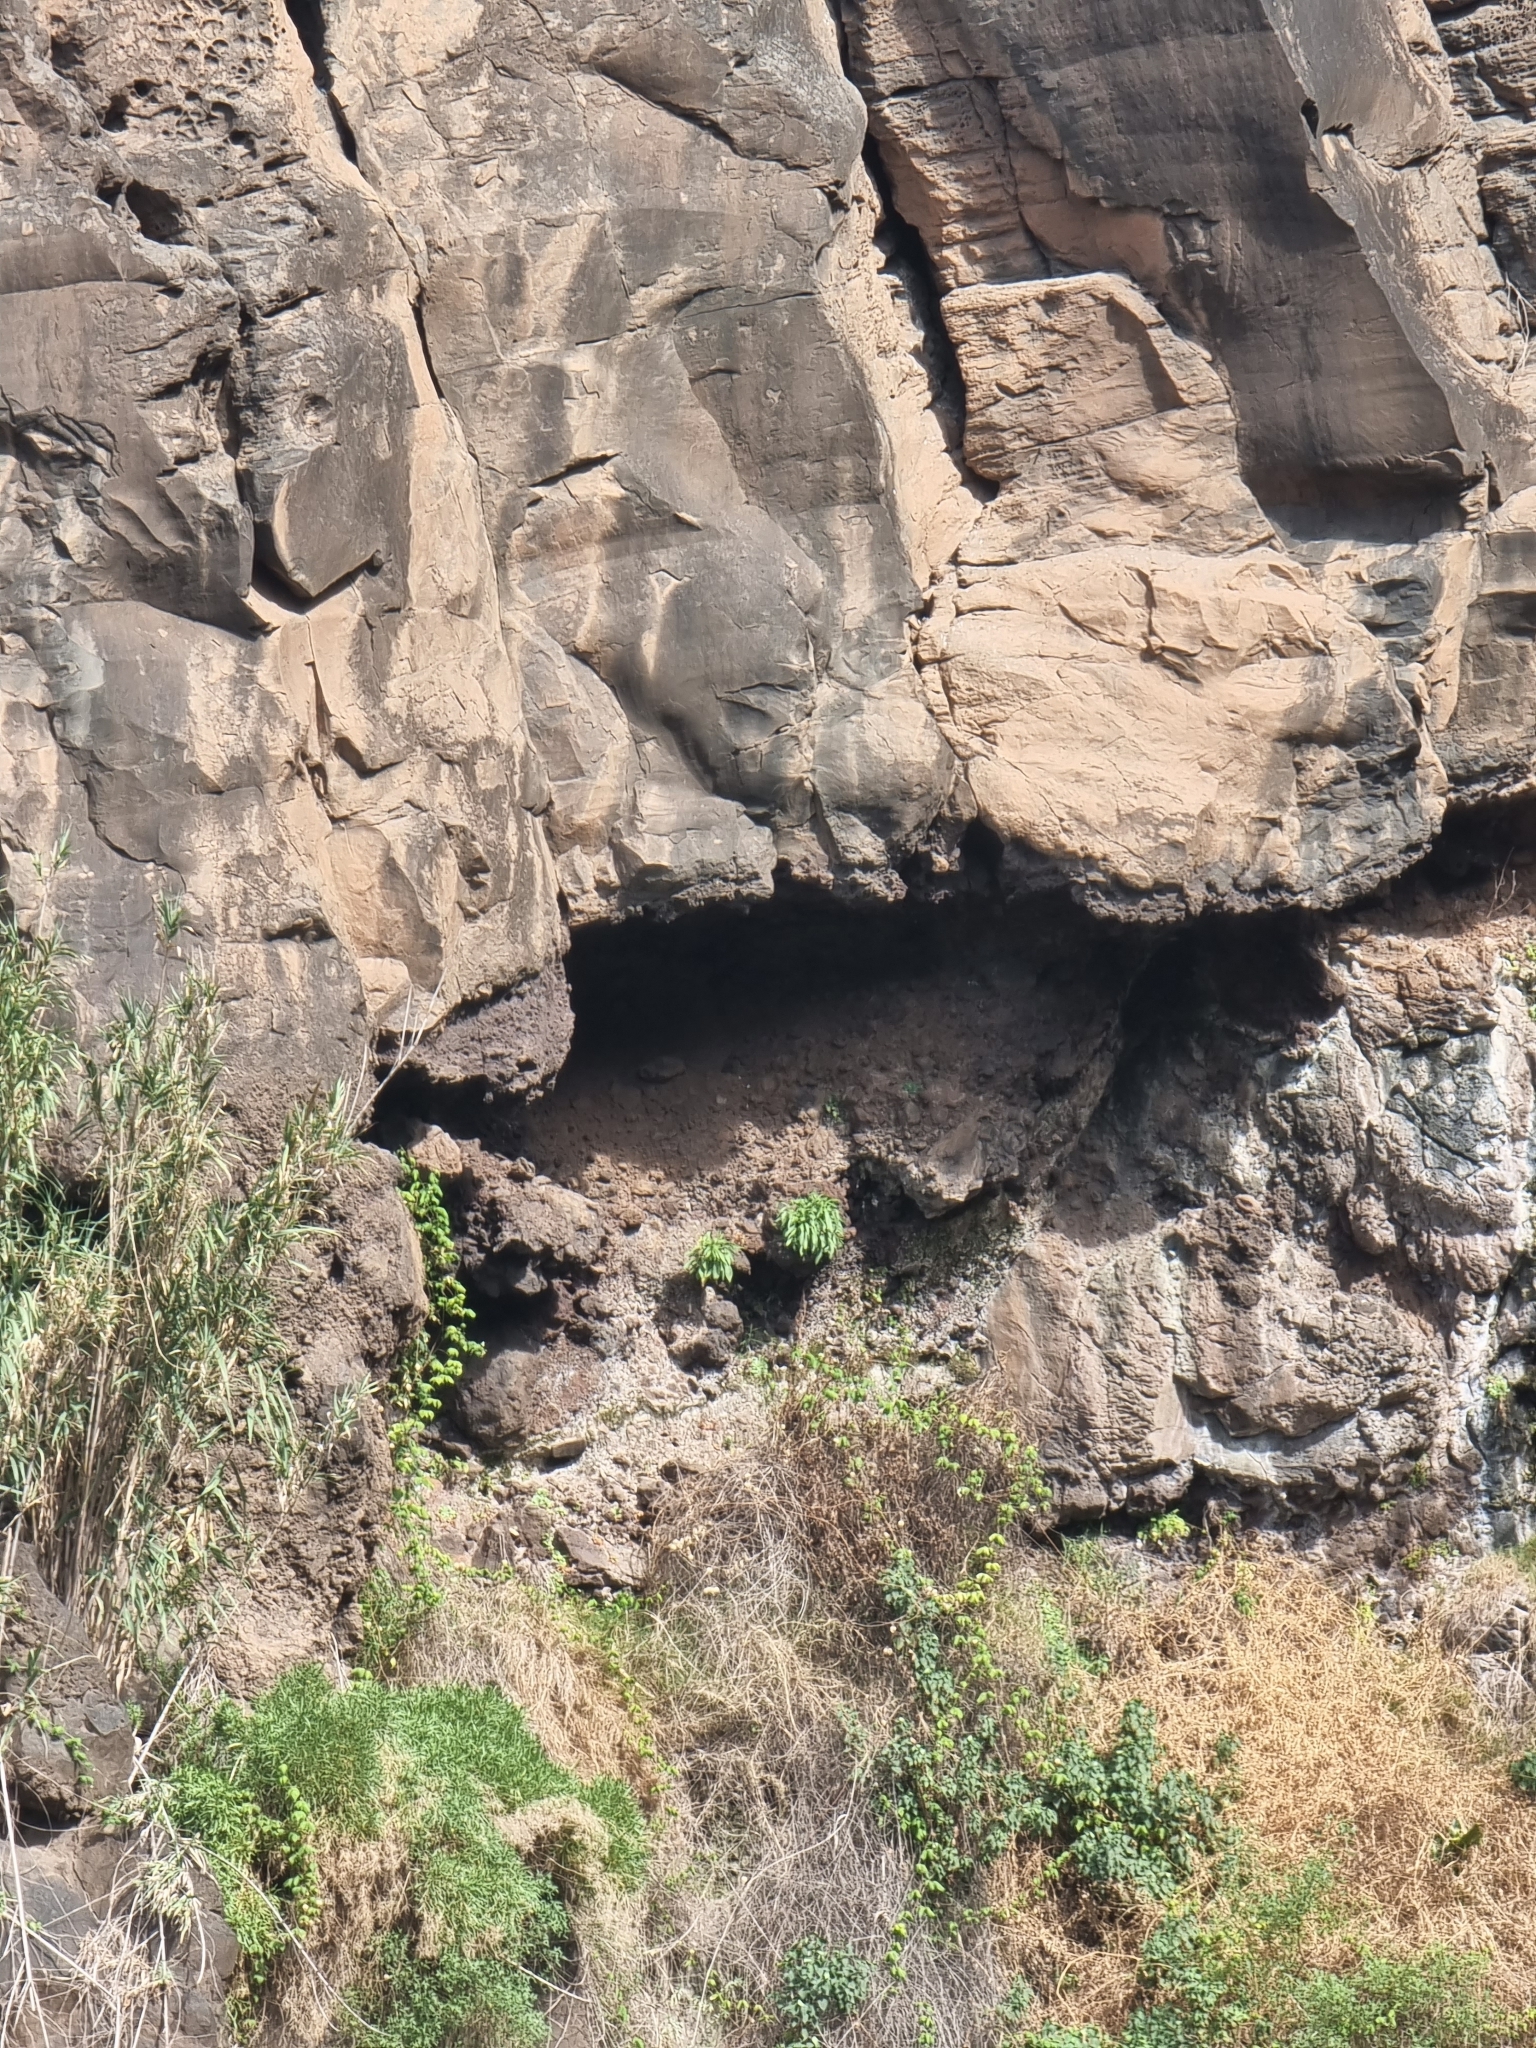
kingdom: Plantae
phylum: Tracheophyta
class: Magnoliopsida
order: Asterales
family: Campanulaceae
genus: Musschia
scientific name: Musschia aurea
